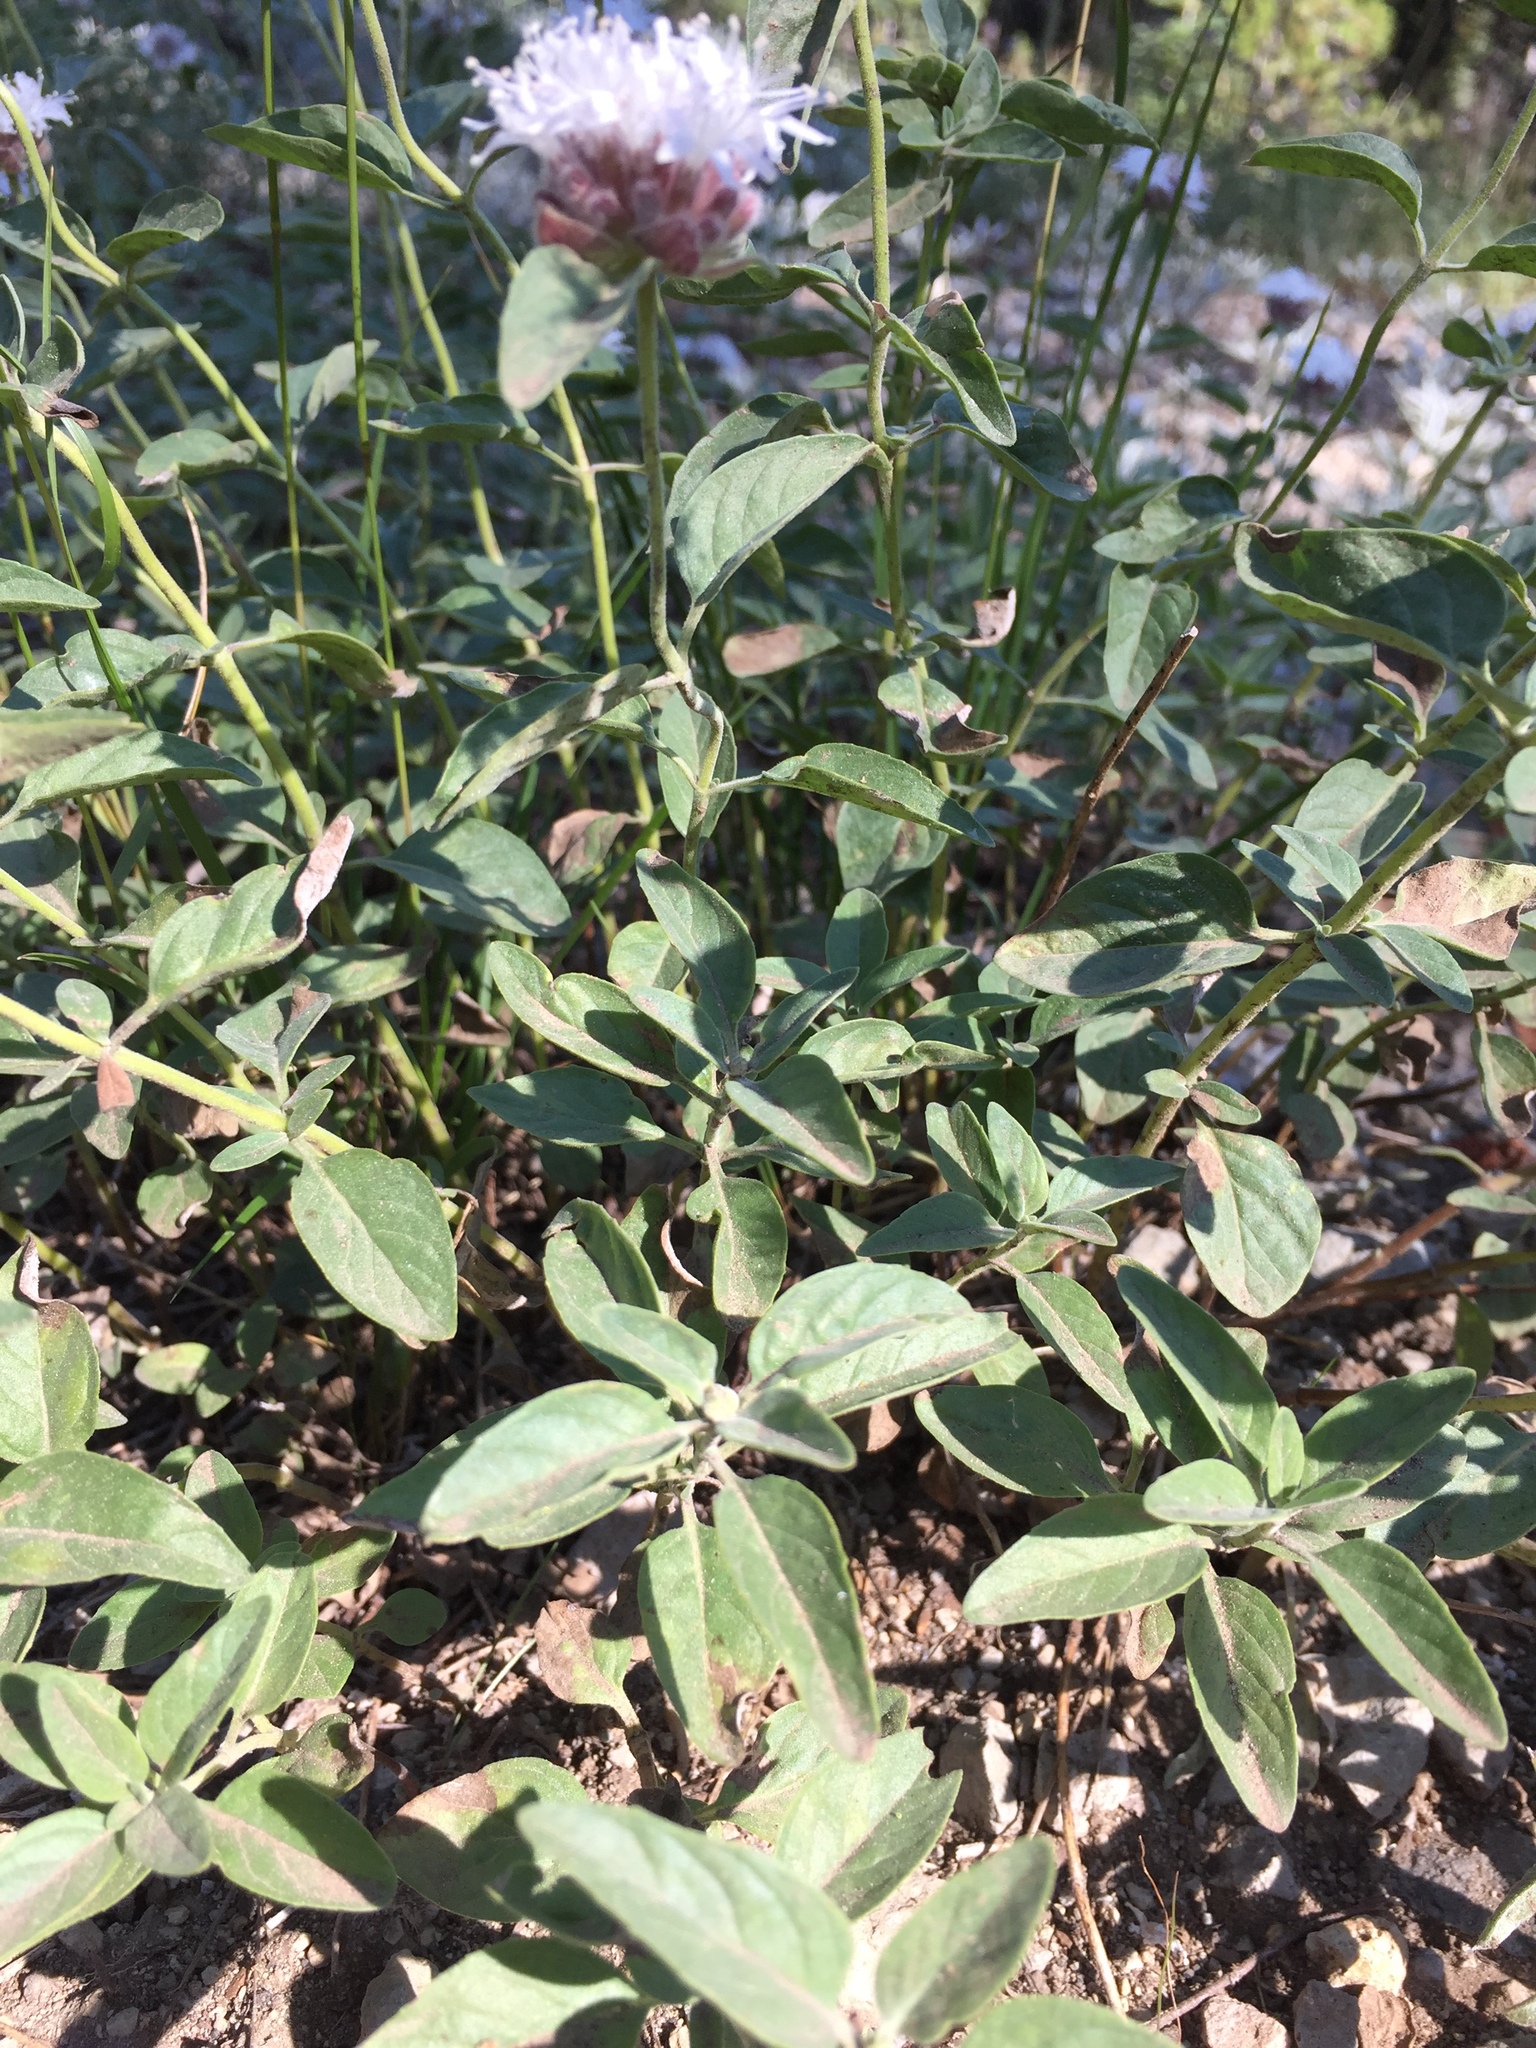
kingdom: Plantae
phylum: Tracheophyta
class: Magnoliopsida
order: Lamiales
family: Lamiaceae
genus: Monardella
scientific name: Monardella odoratissima
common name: Pacific monardella
